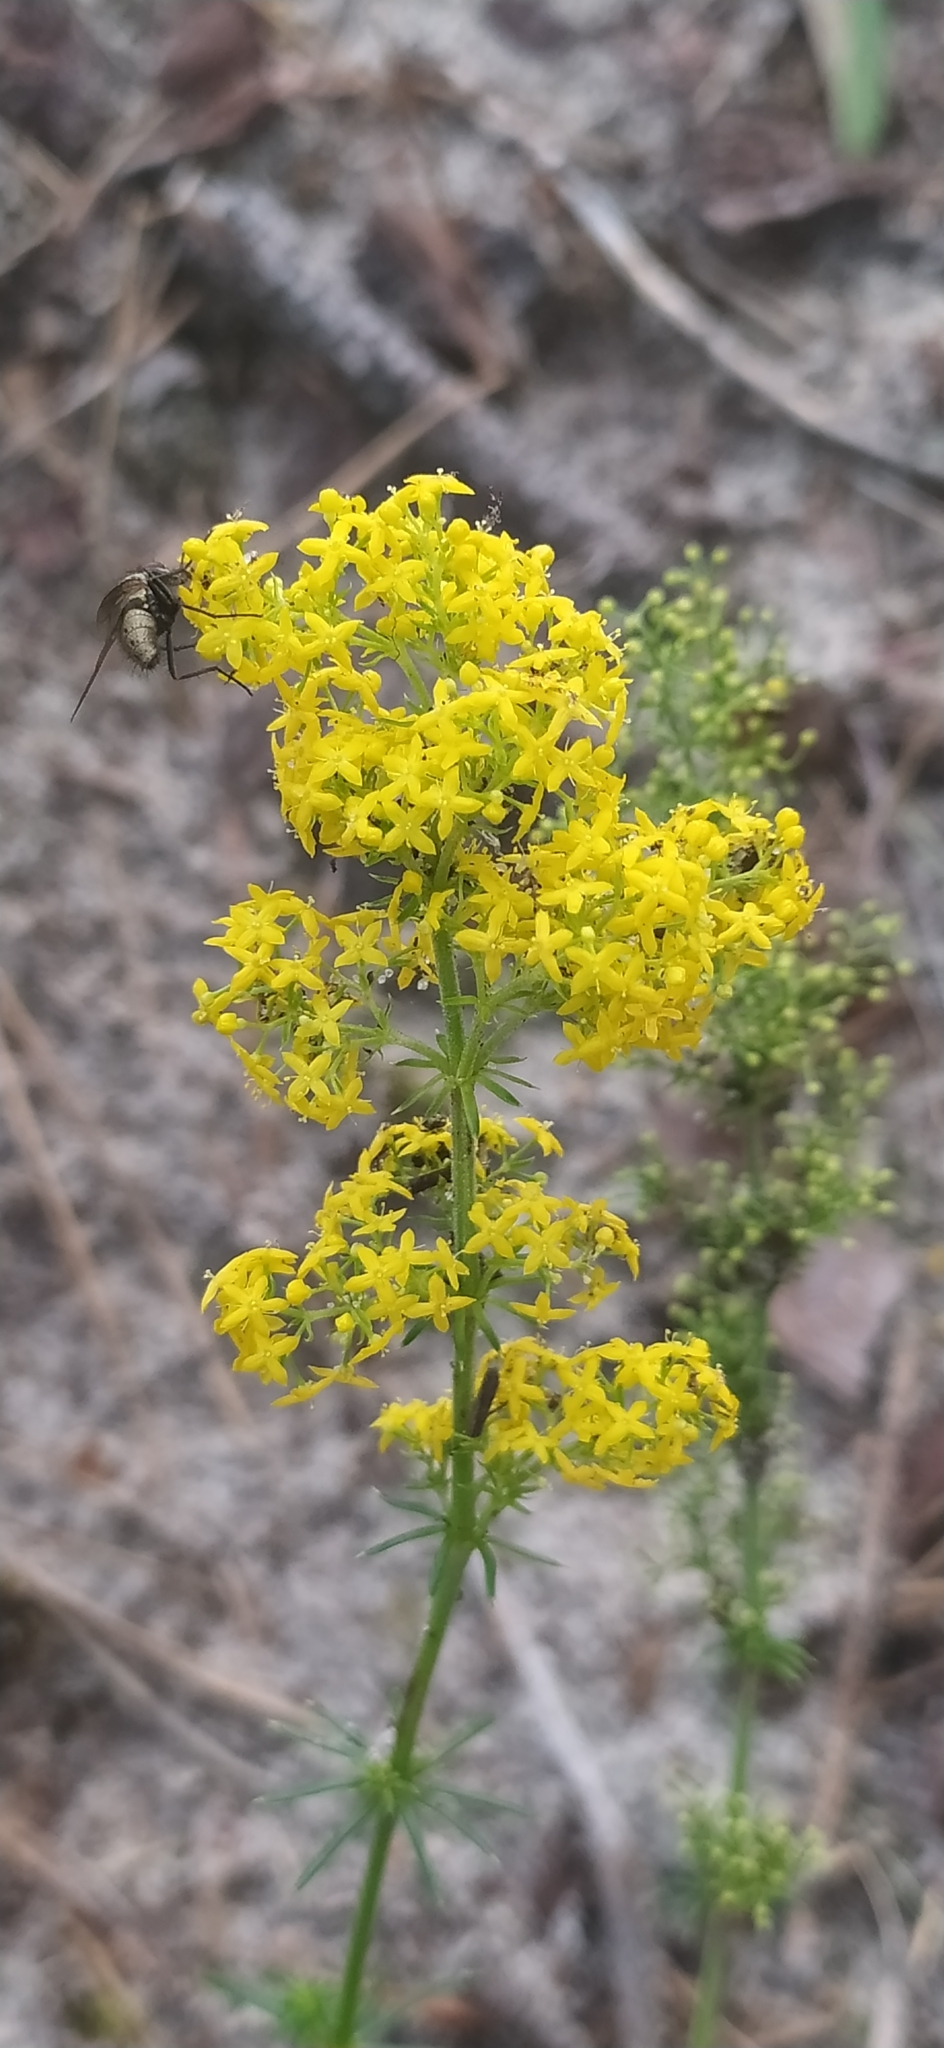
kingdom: Plantae
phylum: Tracheophyta
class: Magnoliopsida
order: Gentianales
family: Rubiaceae
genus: Galium
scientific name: Galium verum
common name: Lady's bedstraw
